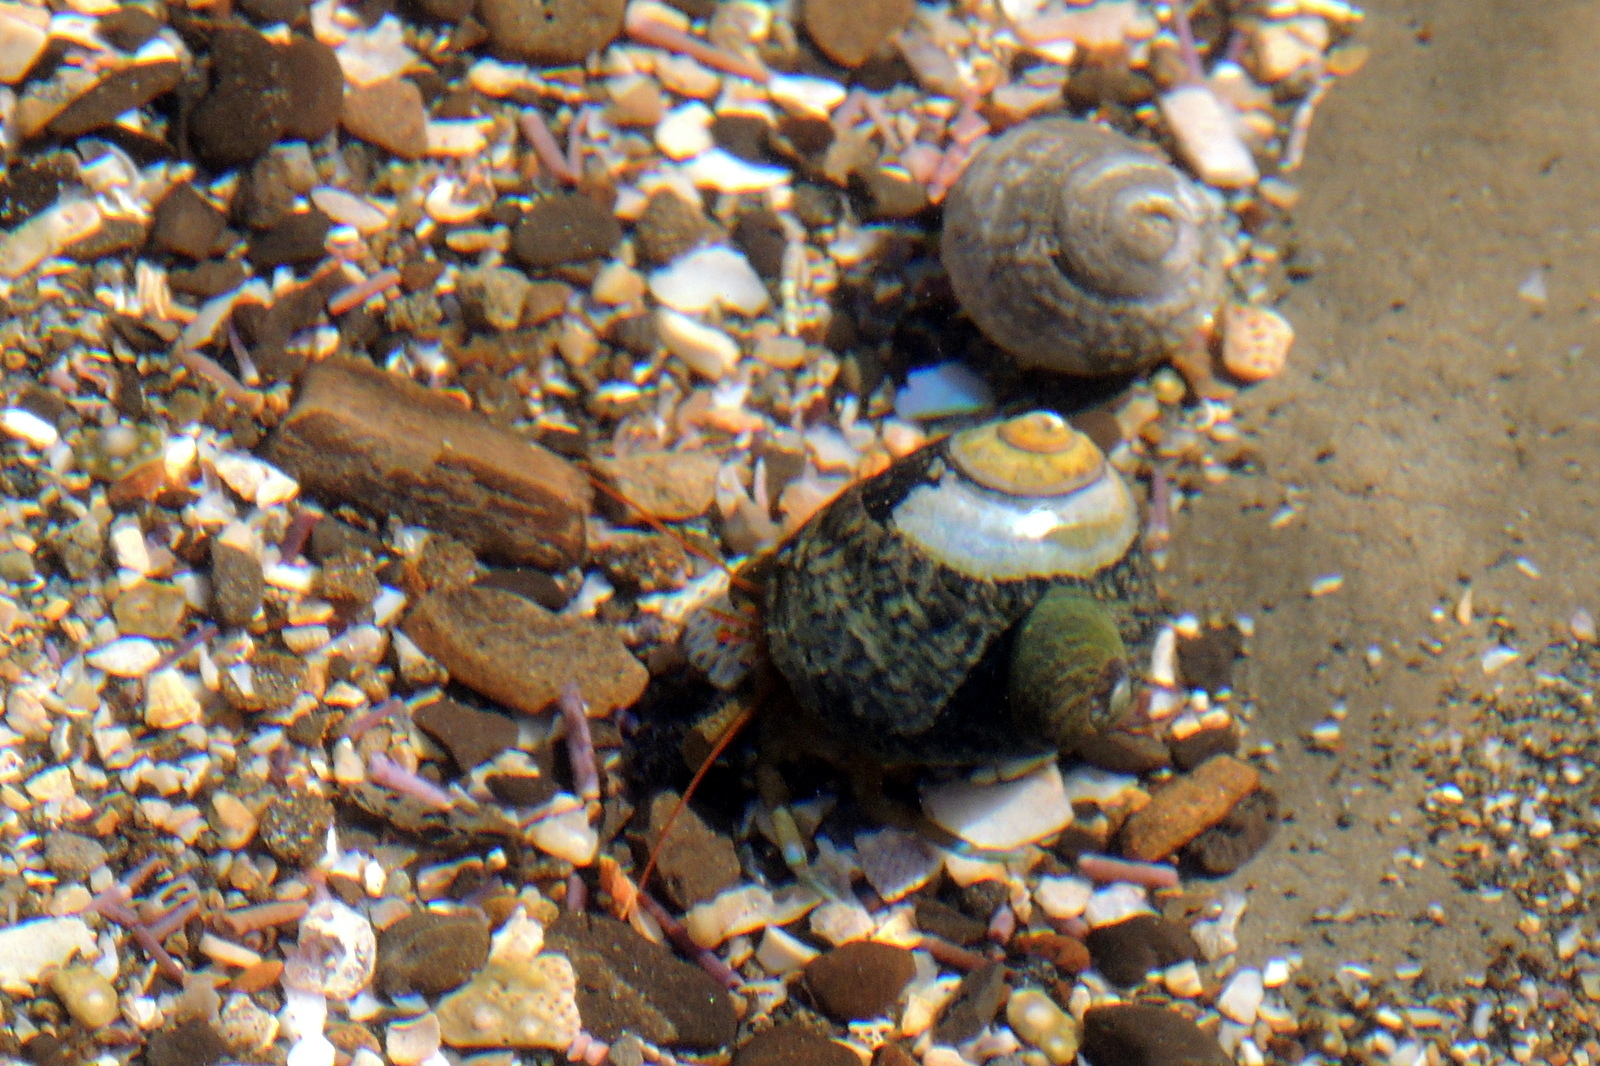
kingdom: Animalia
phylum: Arthropoda
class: Malacostraca
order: Decapoda
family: Paguridae
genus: Pagurus
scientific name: Pagurus samuelis
